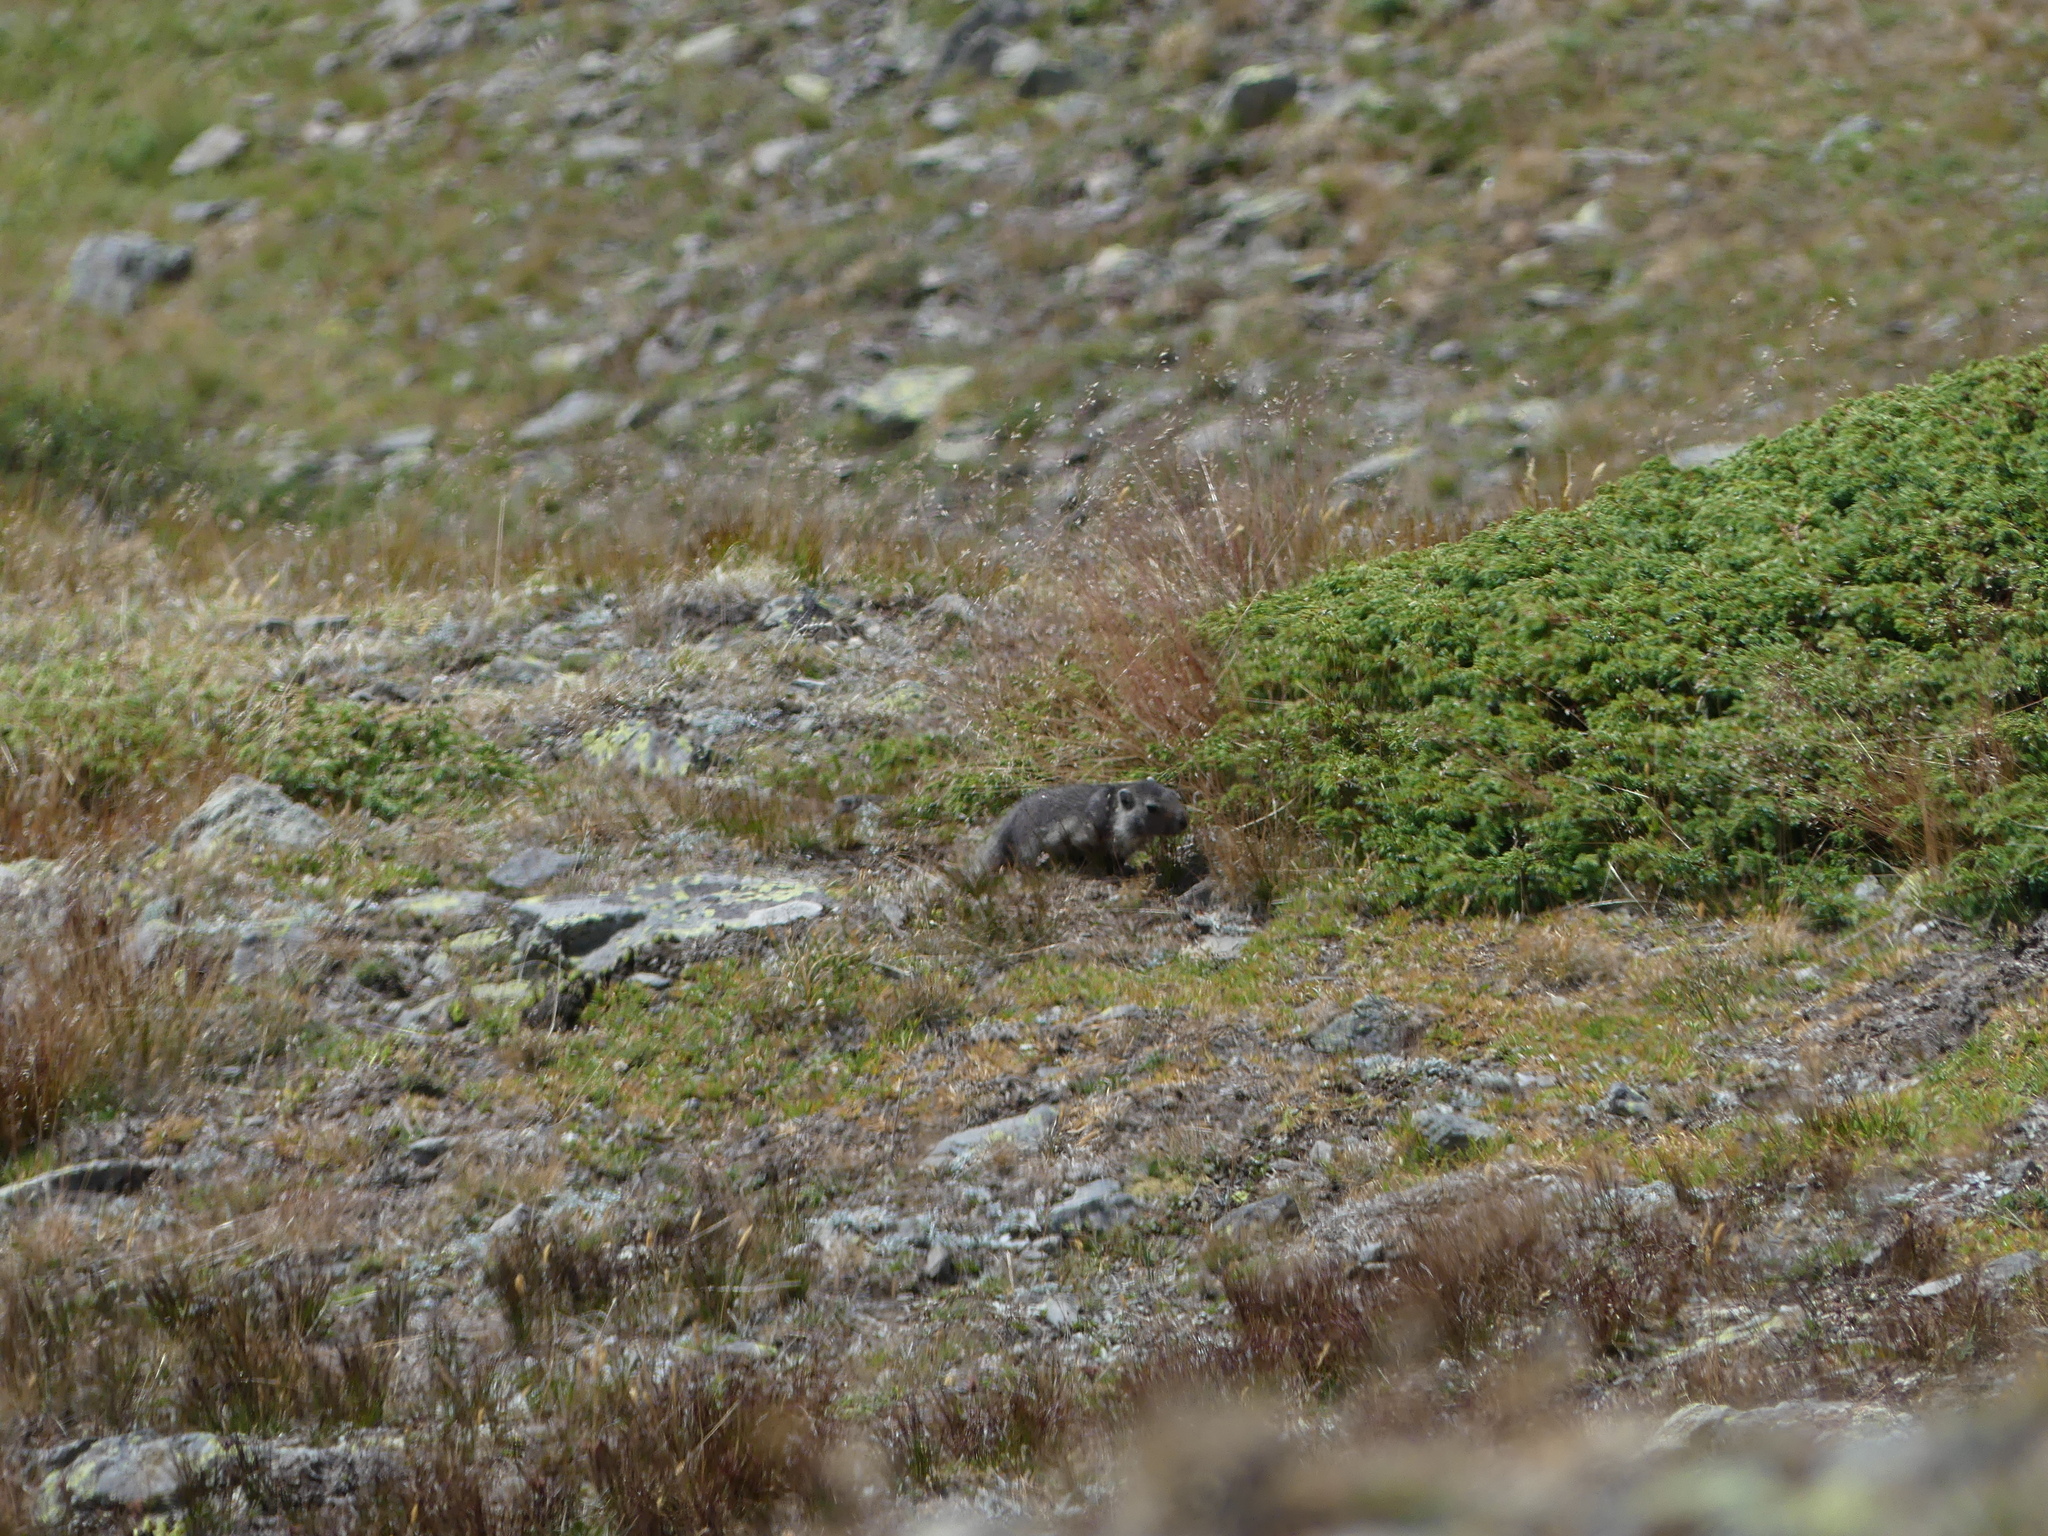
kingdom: Animalia
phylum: Chordata
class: Mammalia
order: Rodentia
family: Sciuridae
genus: Marmota
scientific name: Marmota marmota
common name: Alpine marmot
